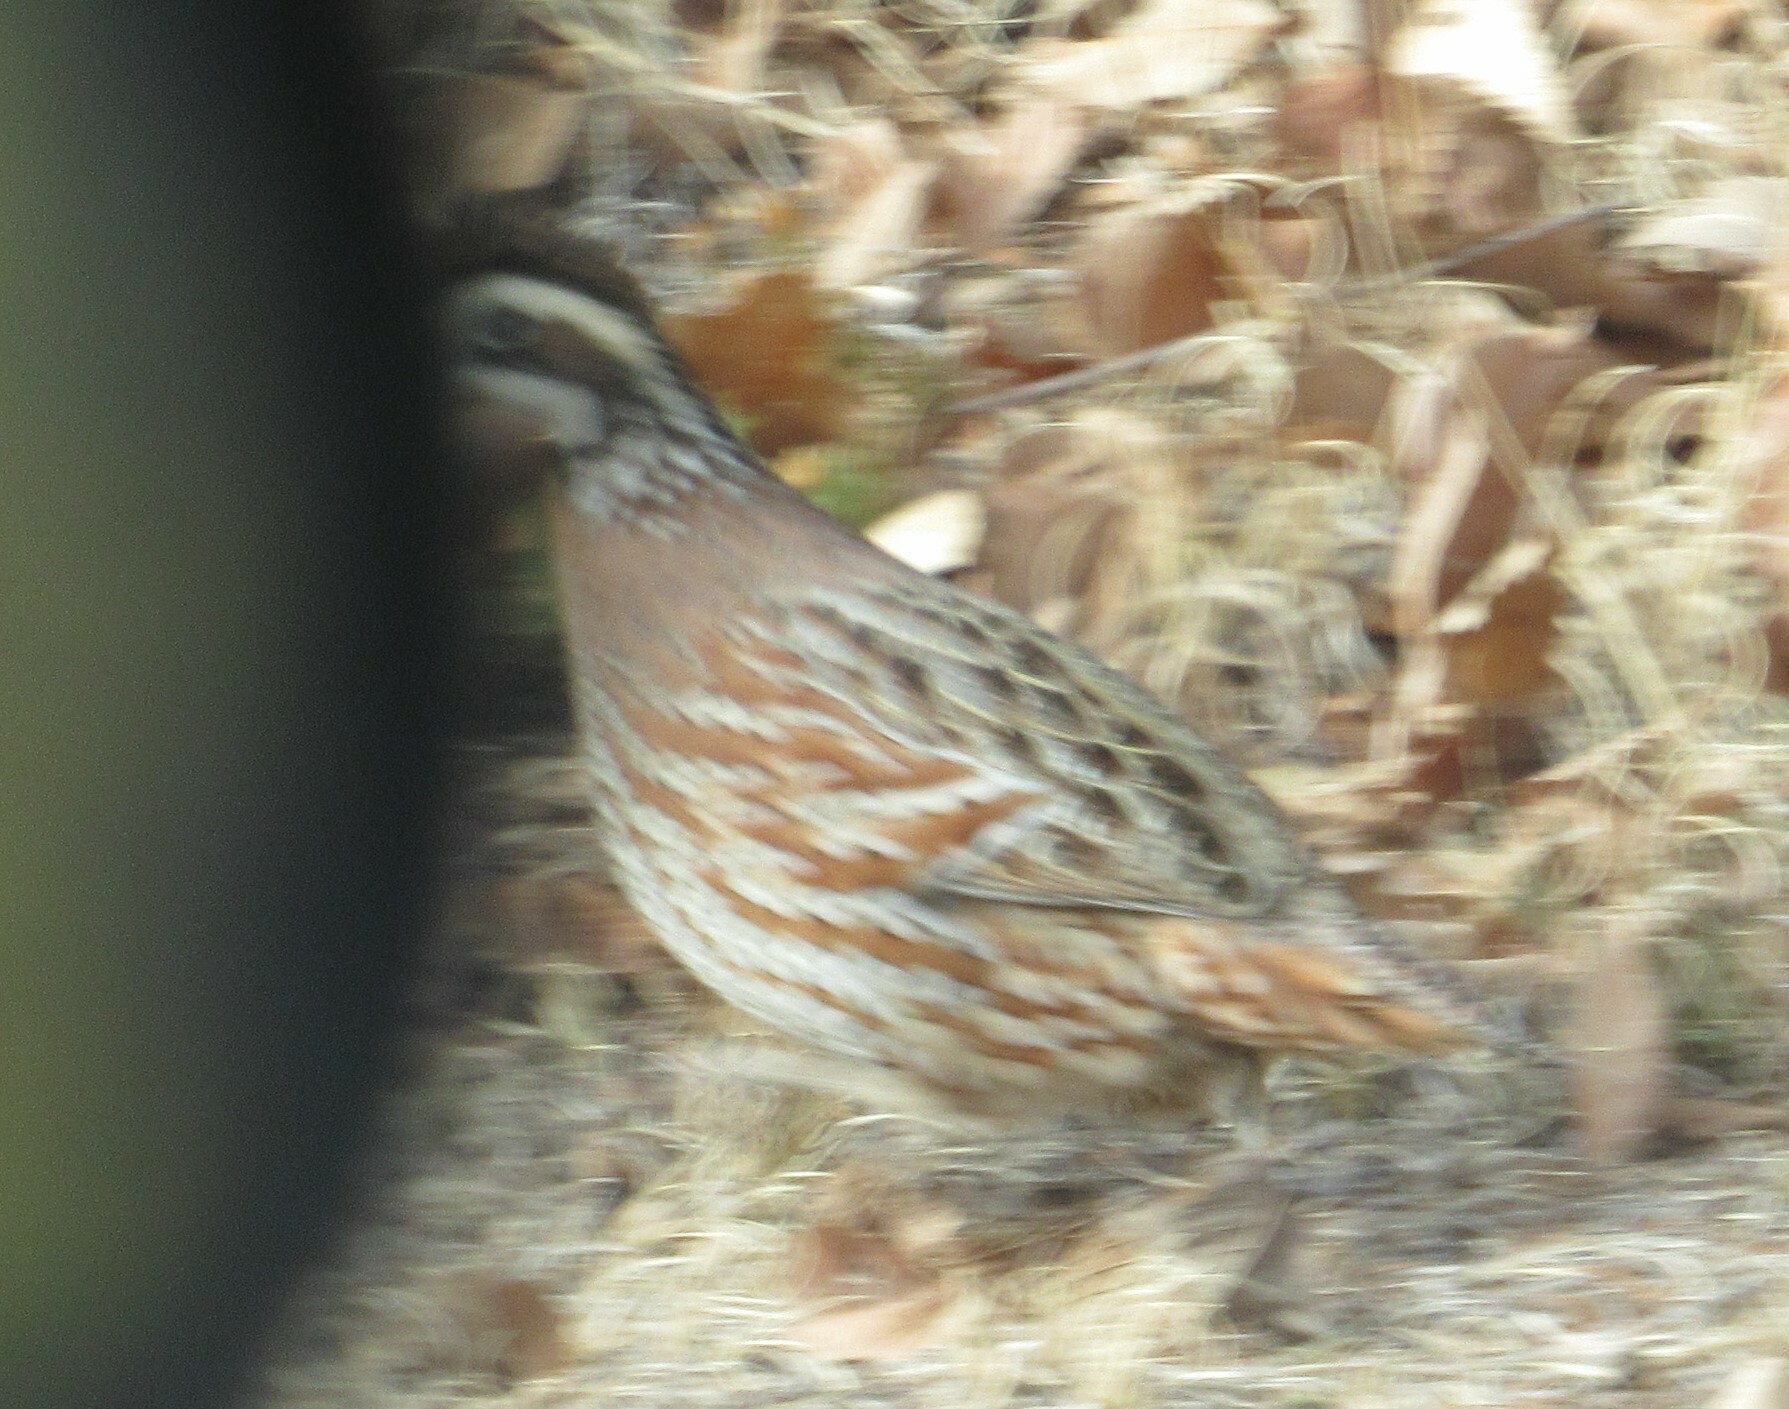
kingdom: Animalia
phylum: Chordata
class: Aves
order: Galliformes
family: Odontophoridae
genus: Colinus
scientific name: Colinus virginianus
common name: Northern bobwhite
